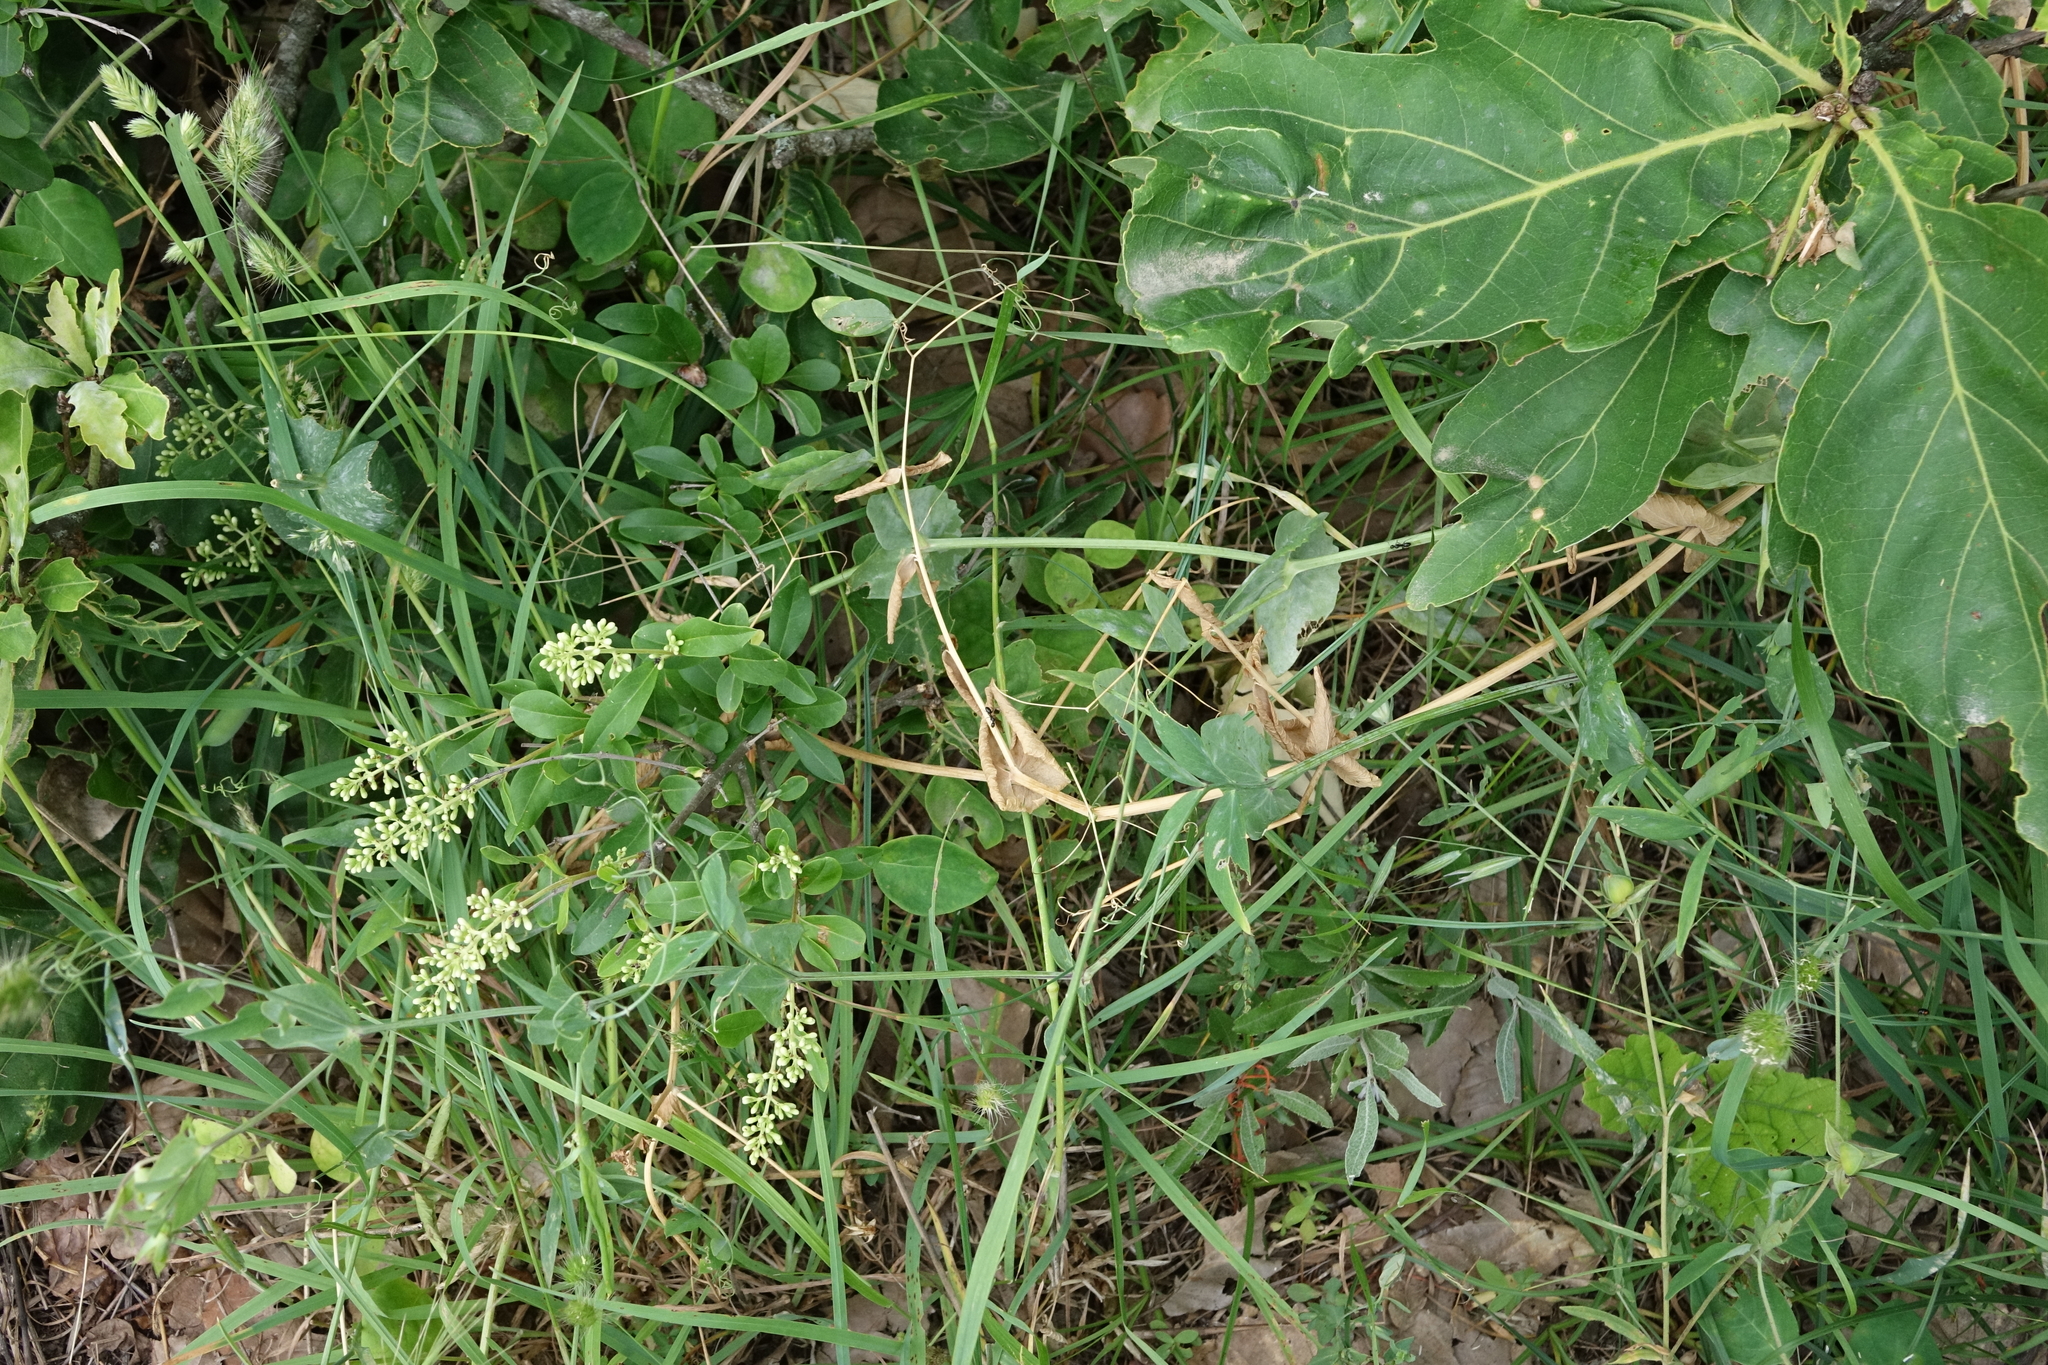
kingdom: Plantae
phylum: Tracheophyta
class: Magnoliopsida
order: Lamiales
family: Oleaceae
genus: Ligustrum
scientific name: Ligustrum vulgare
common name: Wild privet
